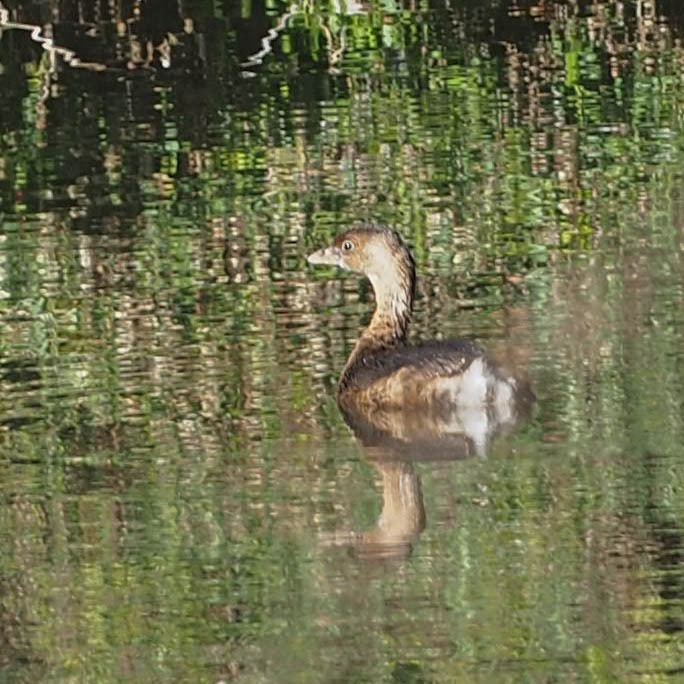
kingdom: Animalia
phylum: Chordata
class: Aves
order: Podicipediformes
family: Podicipedidae
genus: Podilymbus
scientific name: Podilymbus podiceps
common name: Pied-billed grebe
